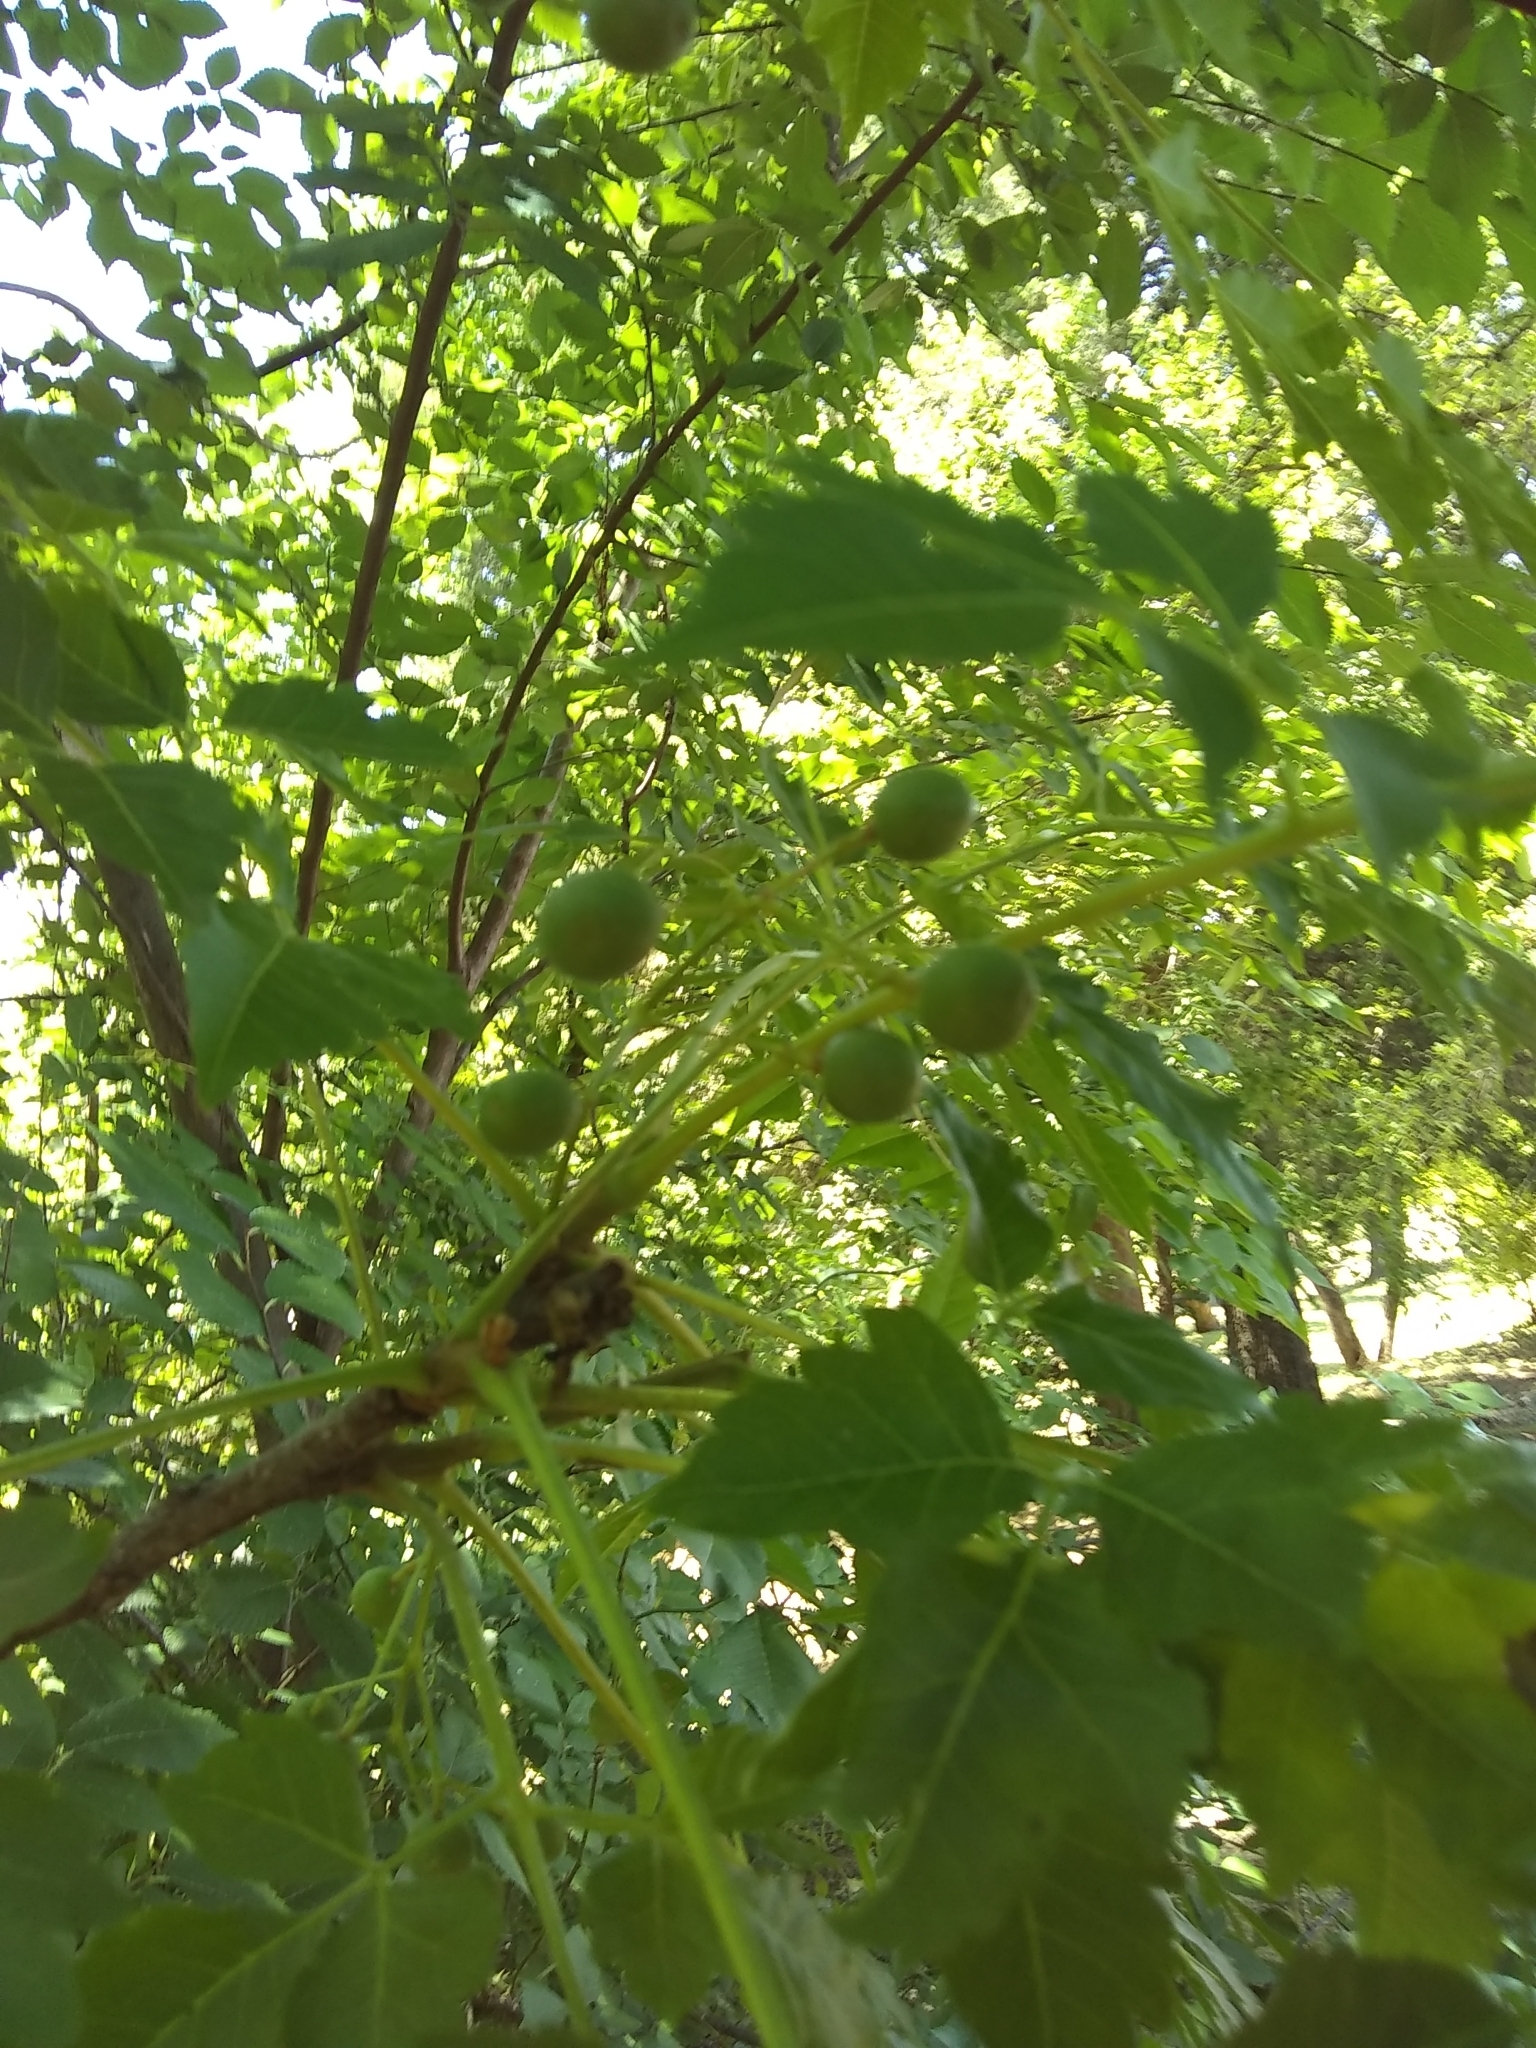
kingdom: Plantae
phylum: Tracheophyta
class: Magnoliopsida
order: Sapindales
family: Meliaceae
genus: Melia
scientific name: Melia azedarach
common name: Chinaberrytree
